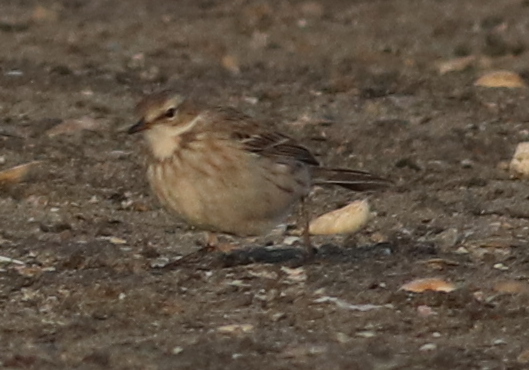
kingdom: Animalia
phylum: Chordata
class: Aves
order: Passeriformes
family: Motacillidae
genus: Anthus
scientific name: Anthus spinoletta
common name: Water pipit
